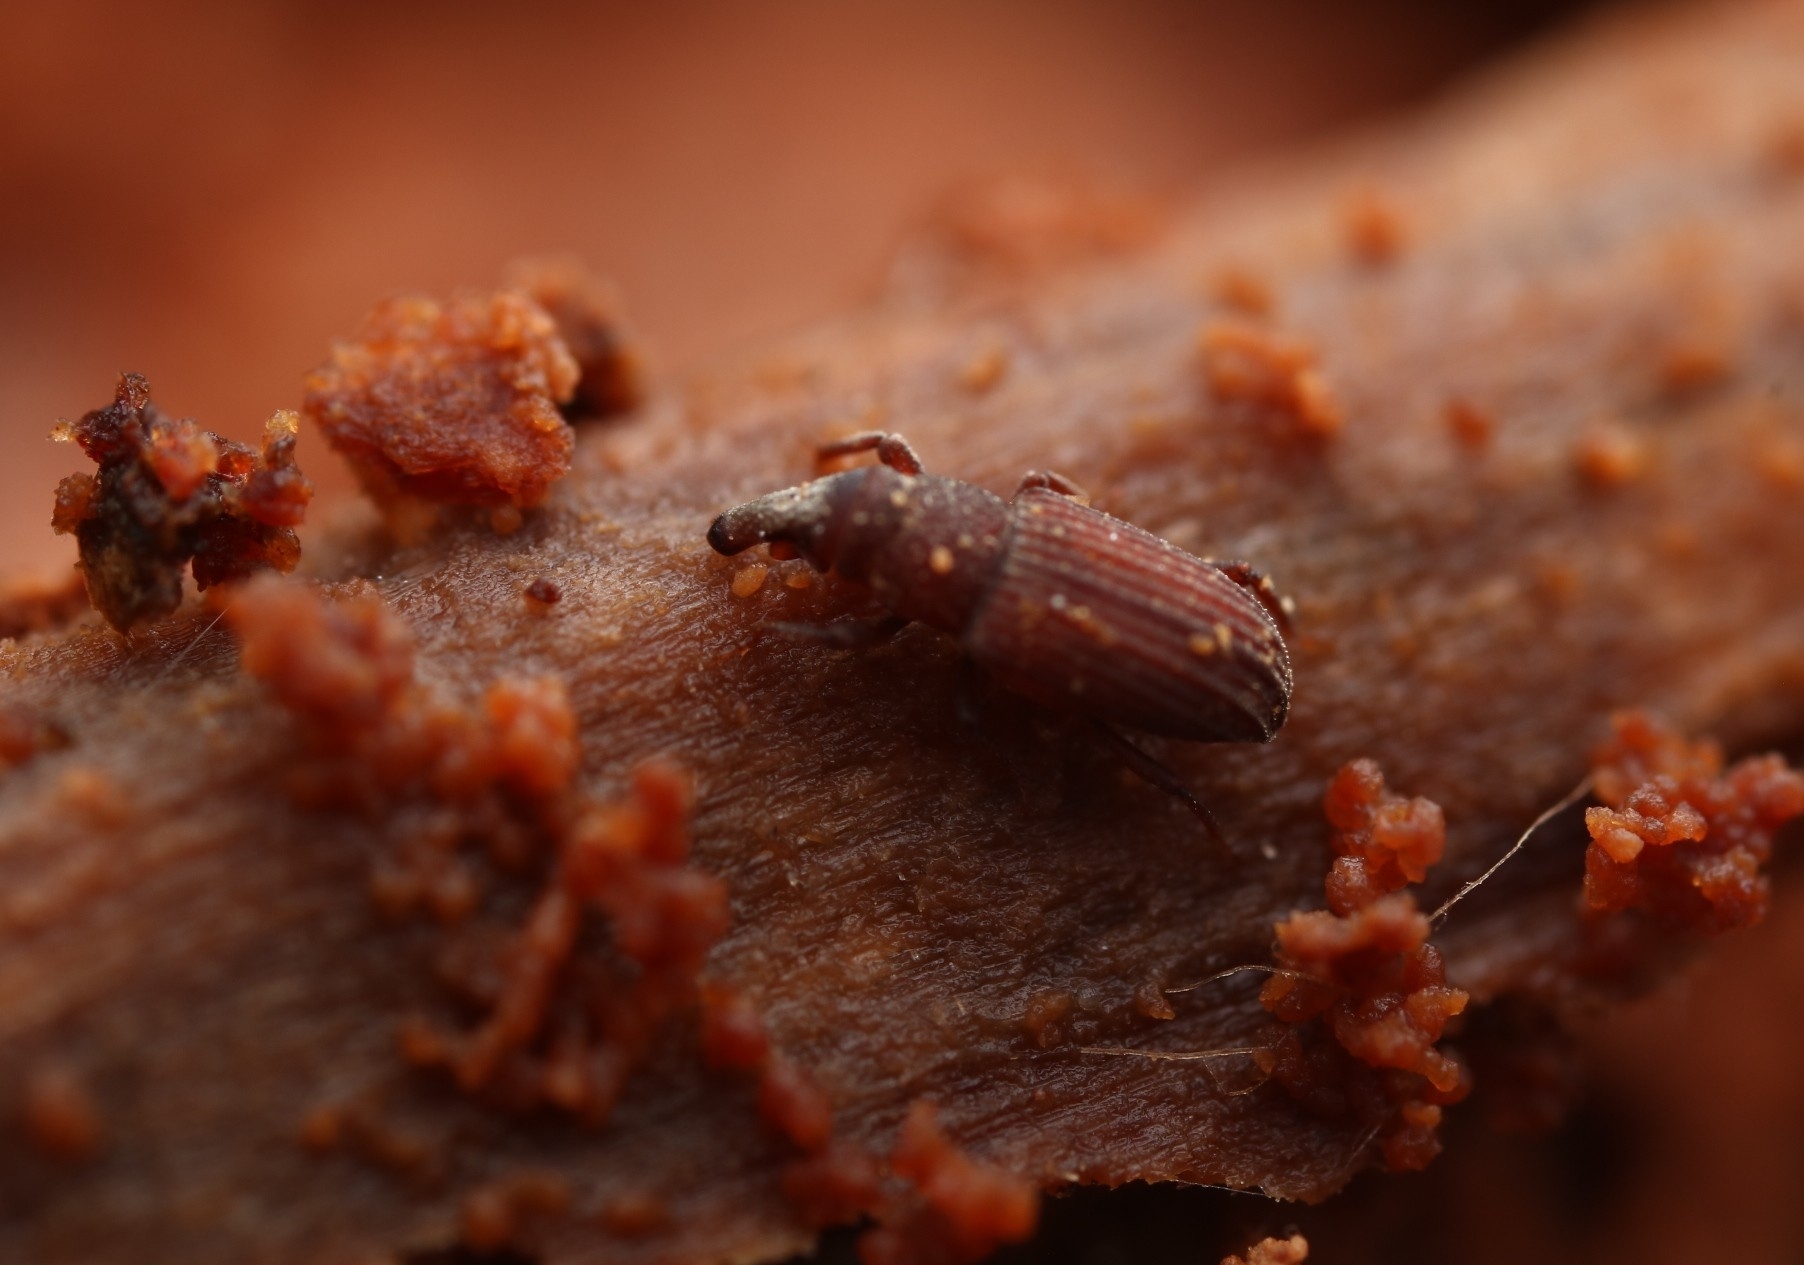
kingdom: Animalia
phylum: Arthropoda
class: Insecta
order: Coleoptera
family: Dryophthoridae
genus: Dryophthorus
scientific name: Dryophthorus americanus
